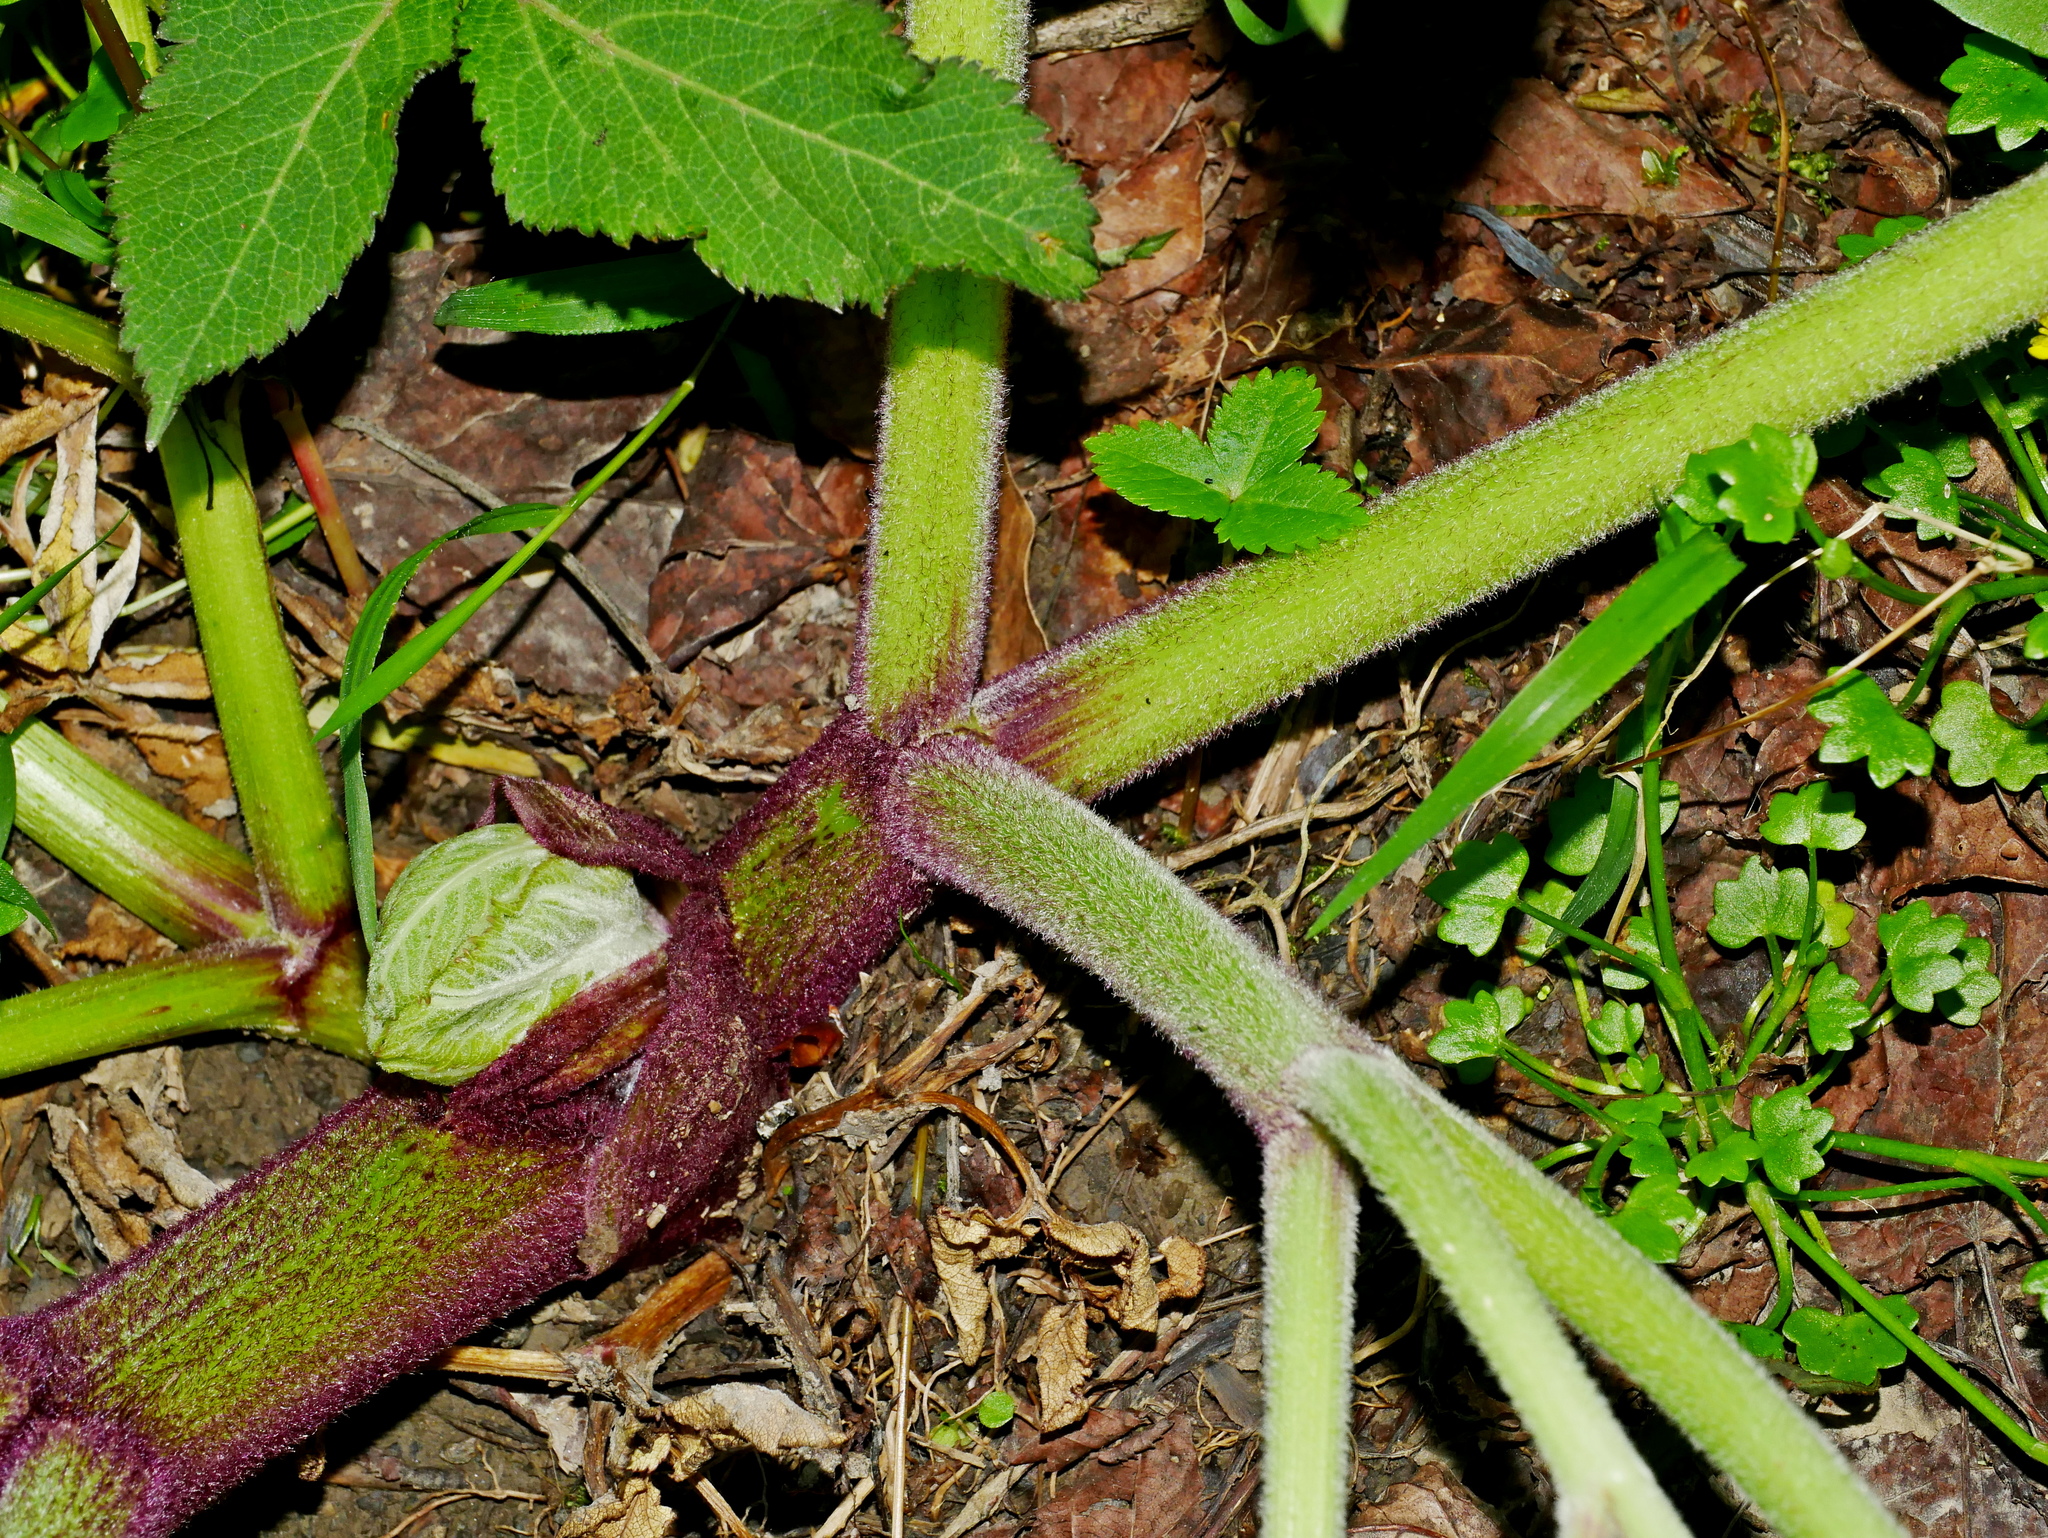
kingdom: Plantae
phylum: Tracheophyta
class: Magnoliopsida
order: Apiales
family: Apiaceae
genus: Angelica
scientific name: Angelica pubescens
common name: Pubescent angelica
